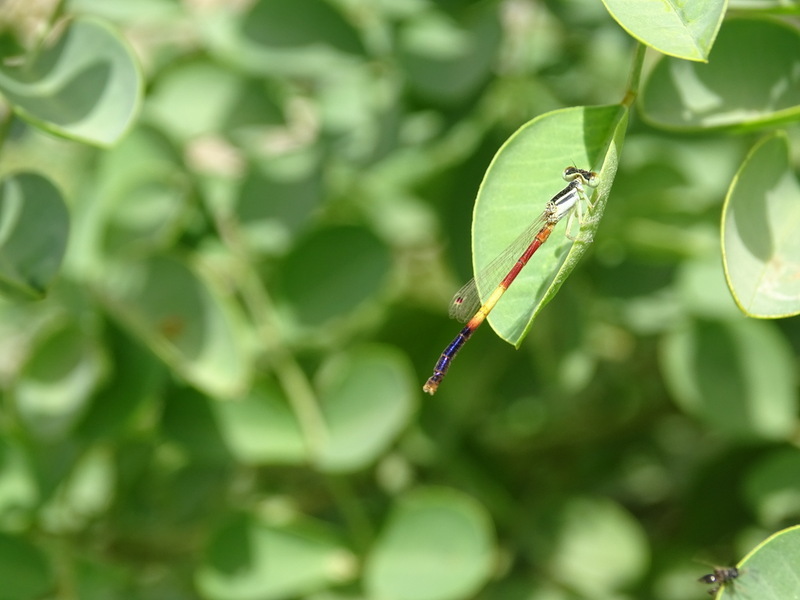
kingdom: Animalia
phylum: Arthropoda
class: Insecta
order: Odonata
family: Coenagrionidae
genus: Ischnura
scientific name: Ischnura nursei
